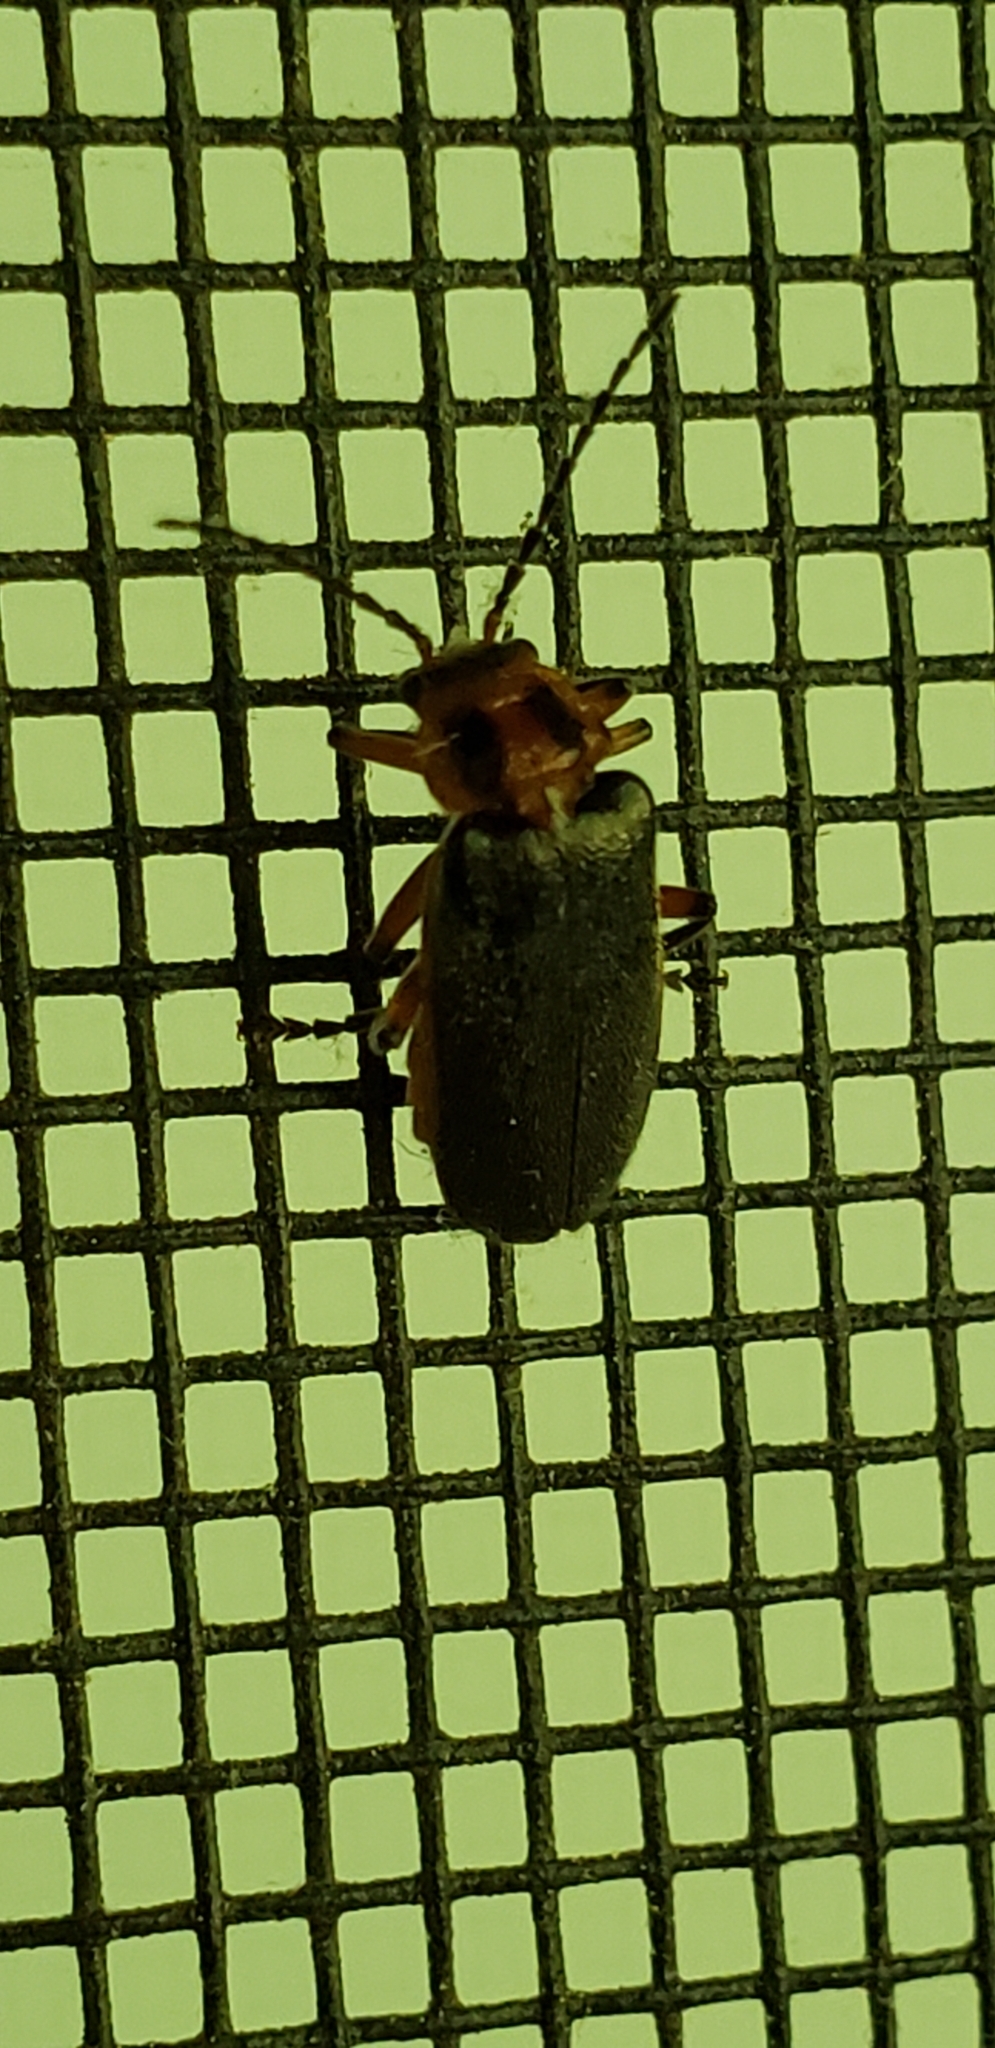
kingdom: Animalia
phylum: Arthropoda
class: Insecta
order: Coleoptera
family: Cantharidae
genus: Atalantycha
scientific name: Atalantycha bilineata
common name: Two-lined leatherwing
